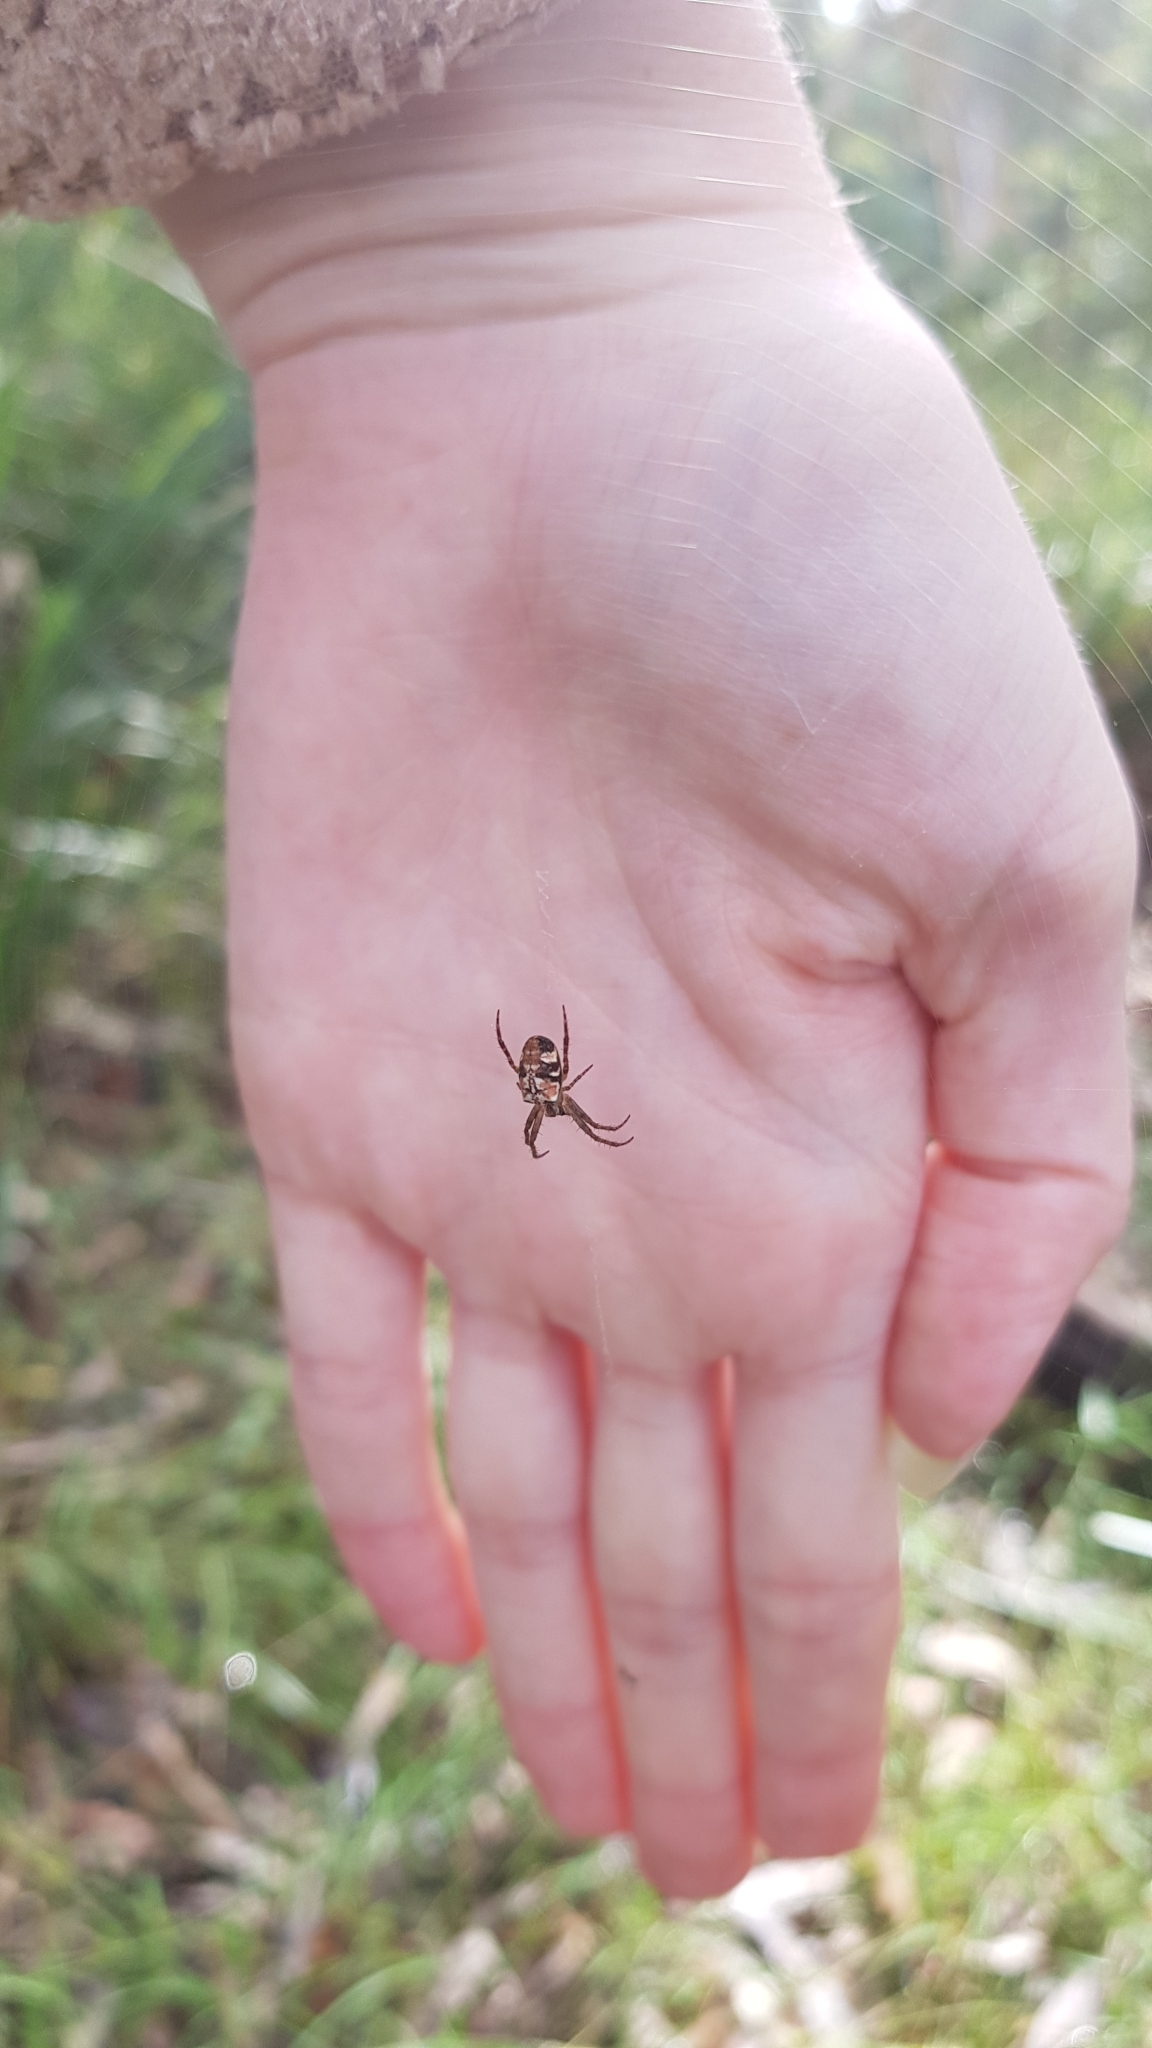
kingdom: Animalia
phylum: Arthropoda
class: Arachnida
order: Araneae
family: Araneidae
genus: Plebs
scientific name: Plebs eburnus
